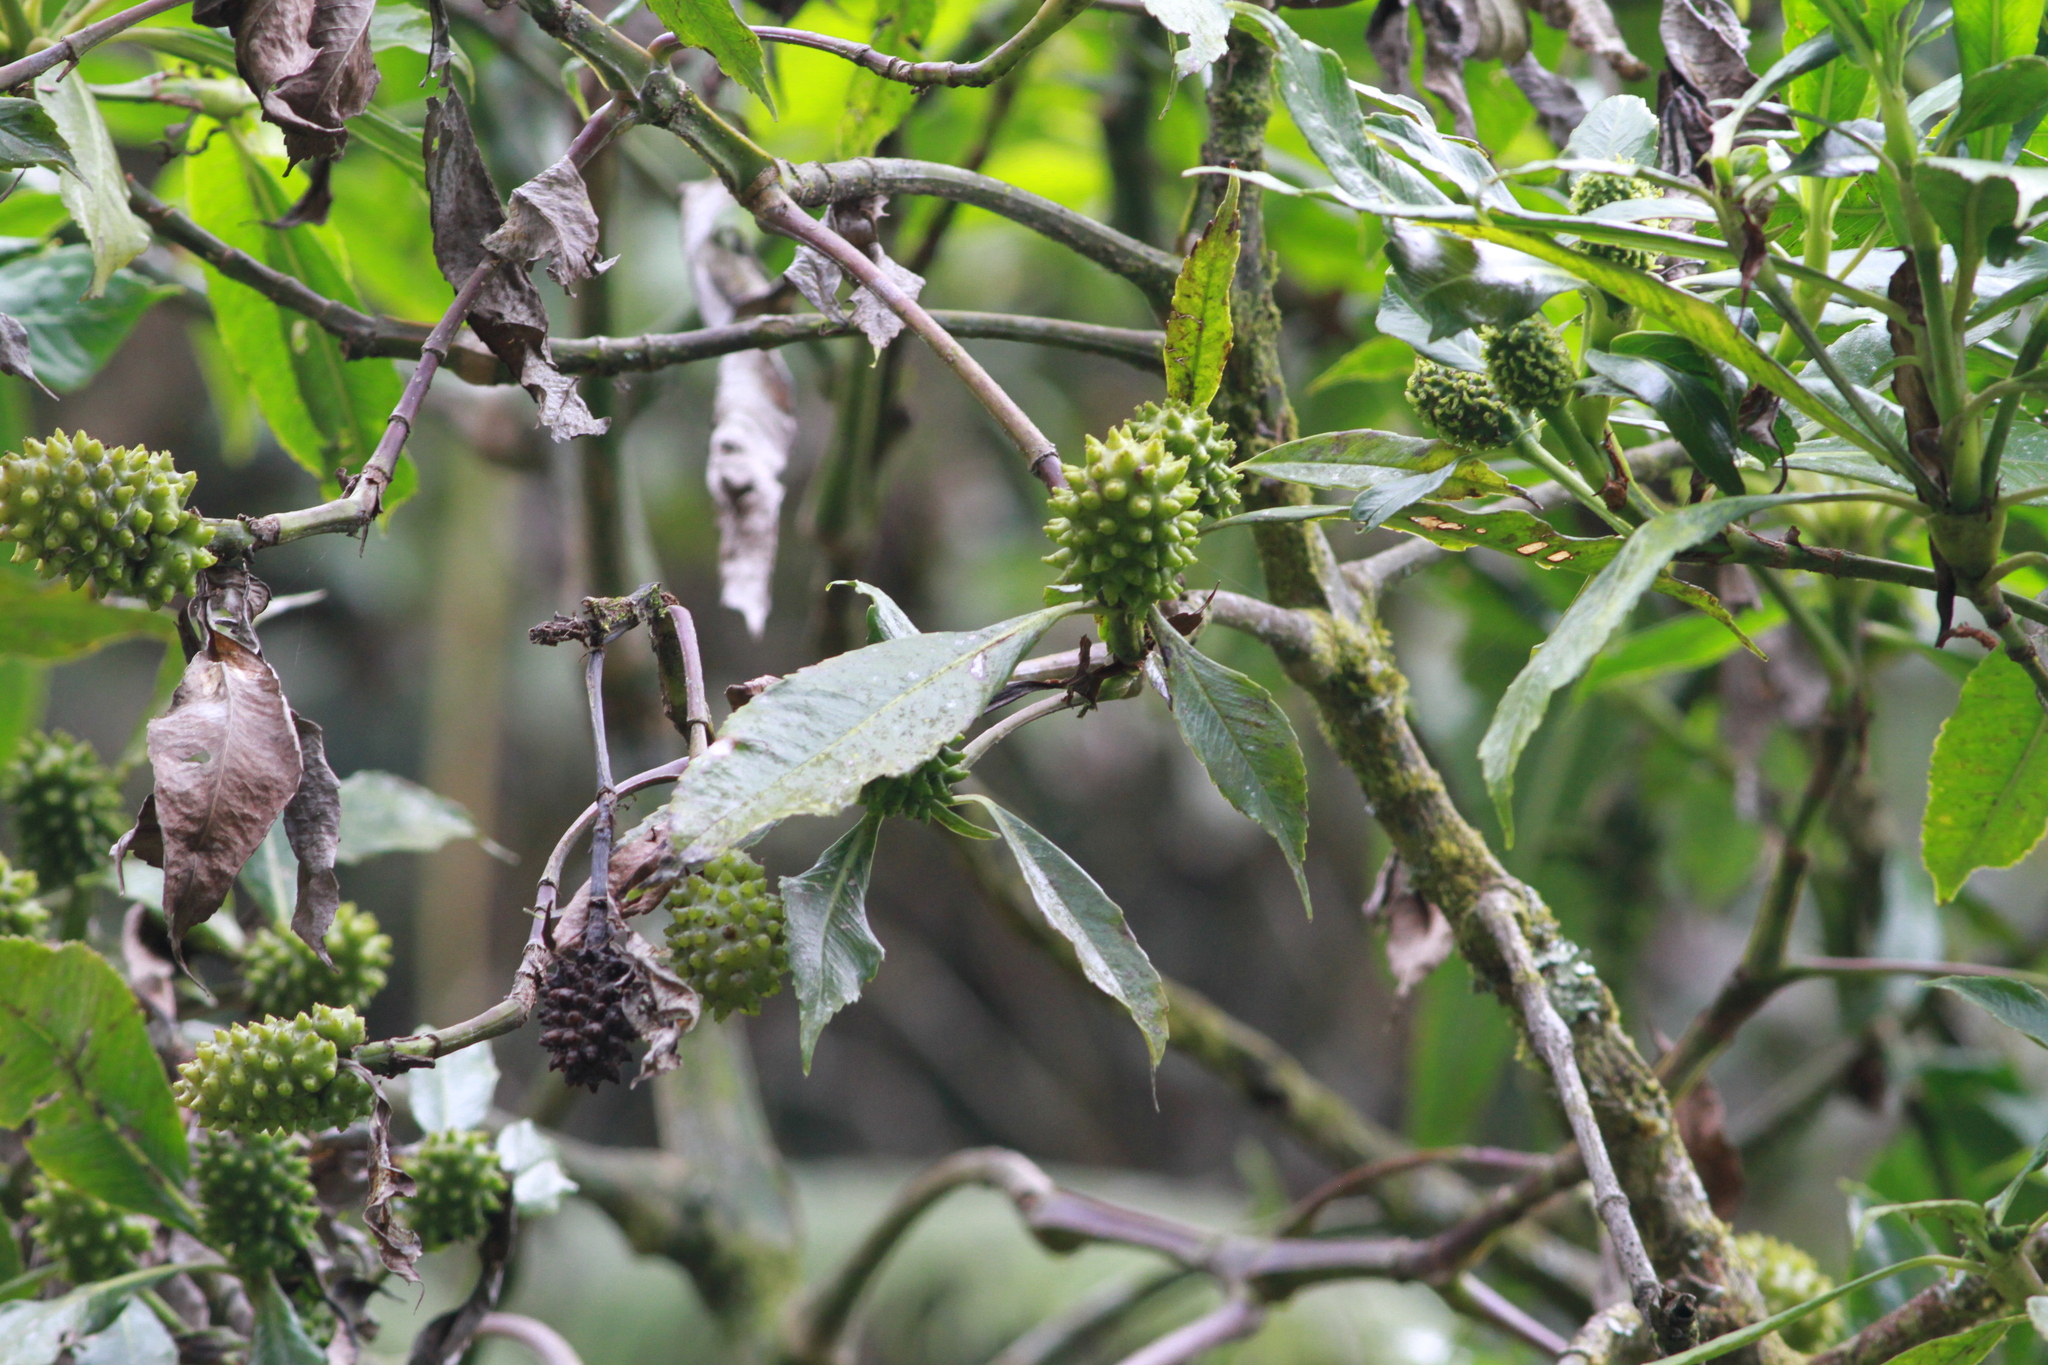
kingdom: Plantae
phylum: Tracheophyta
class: Magnoliopsida
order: Chloranthales
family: Chloranthaceae
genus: Hedyosmum
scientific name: Hedyosmum mexicanum
